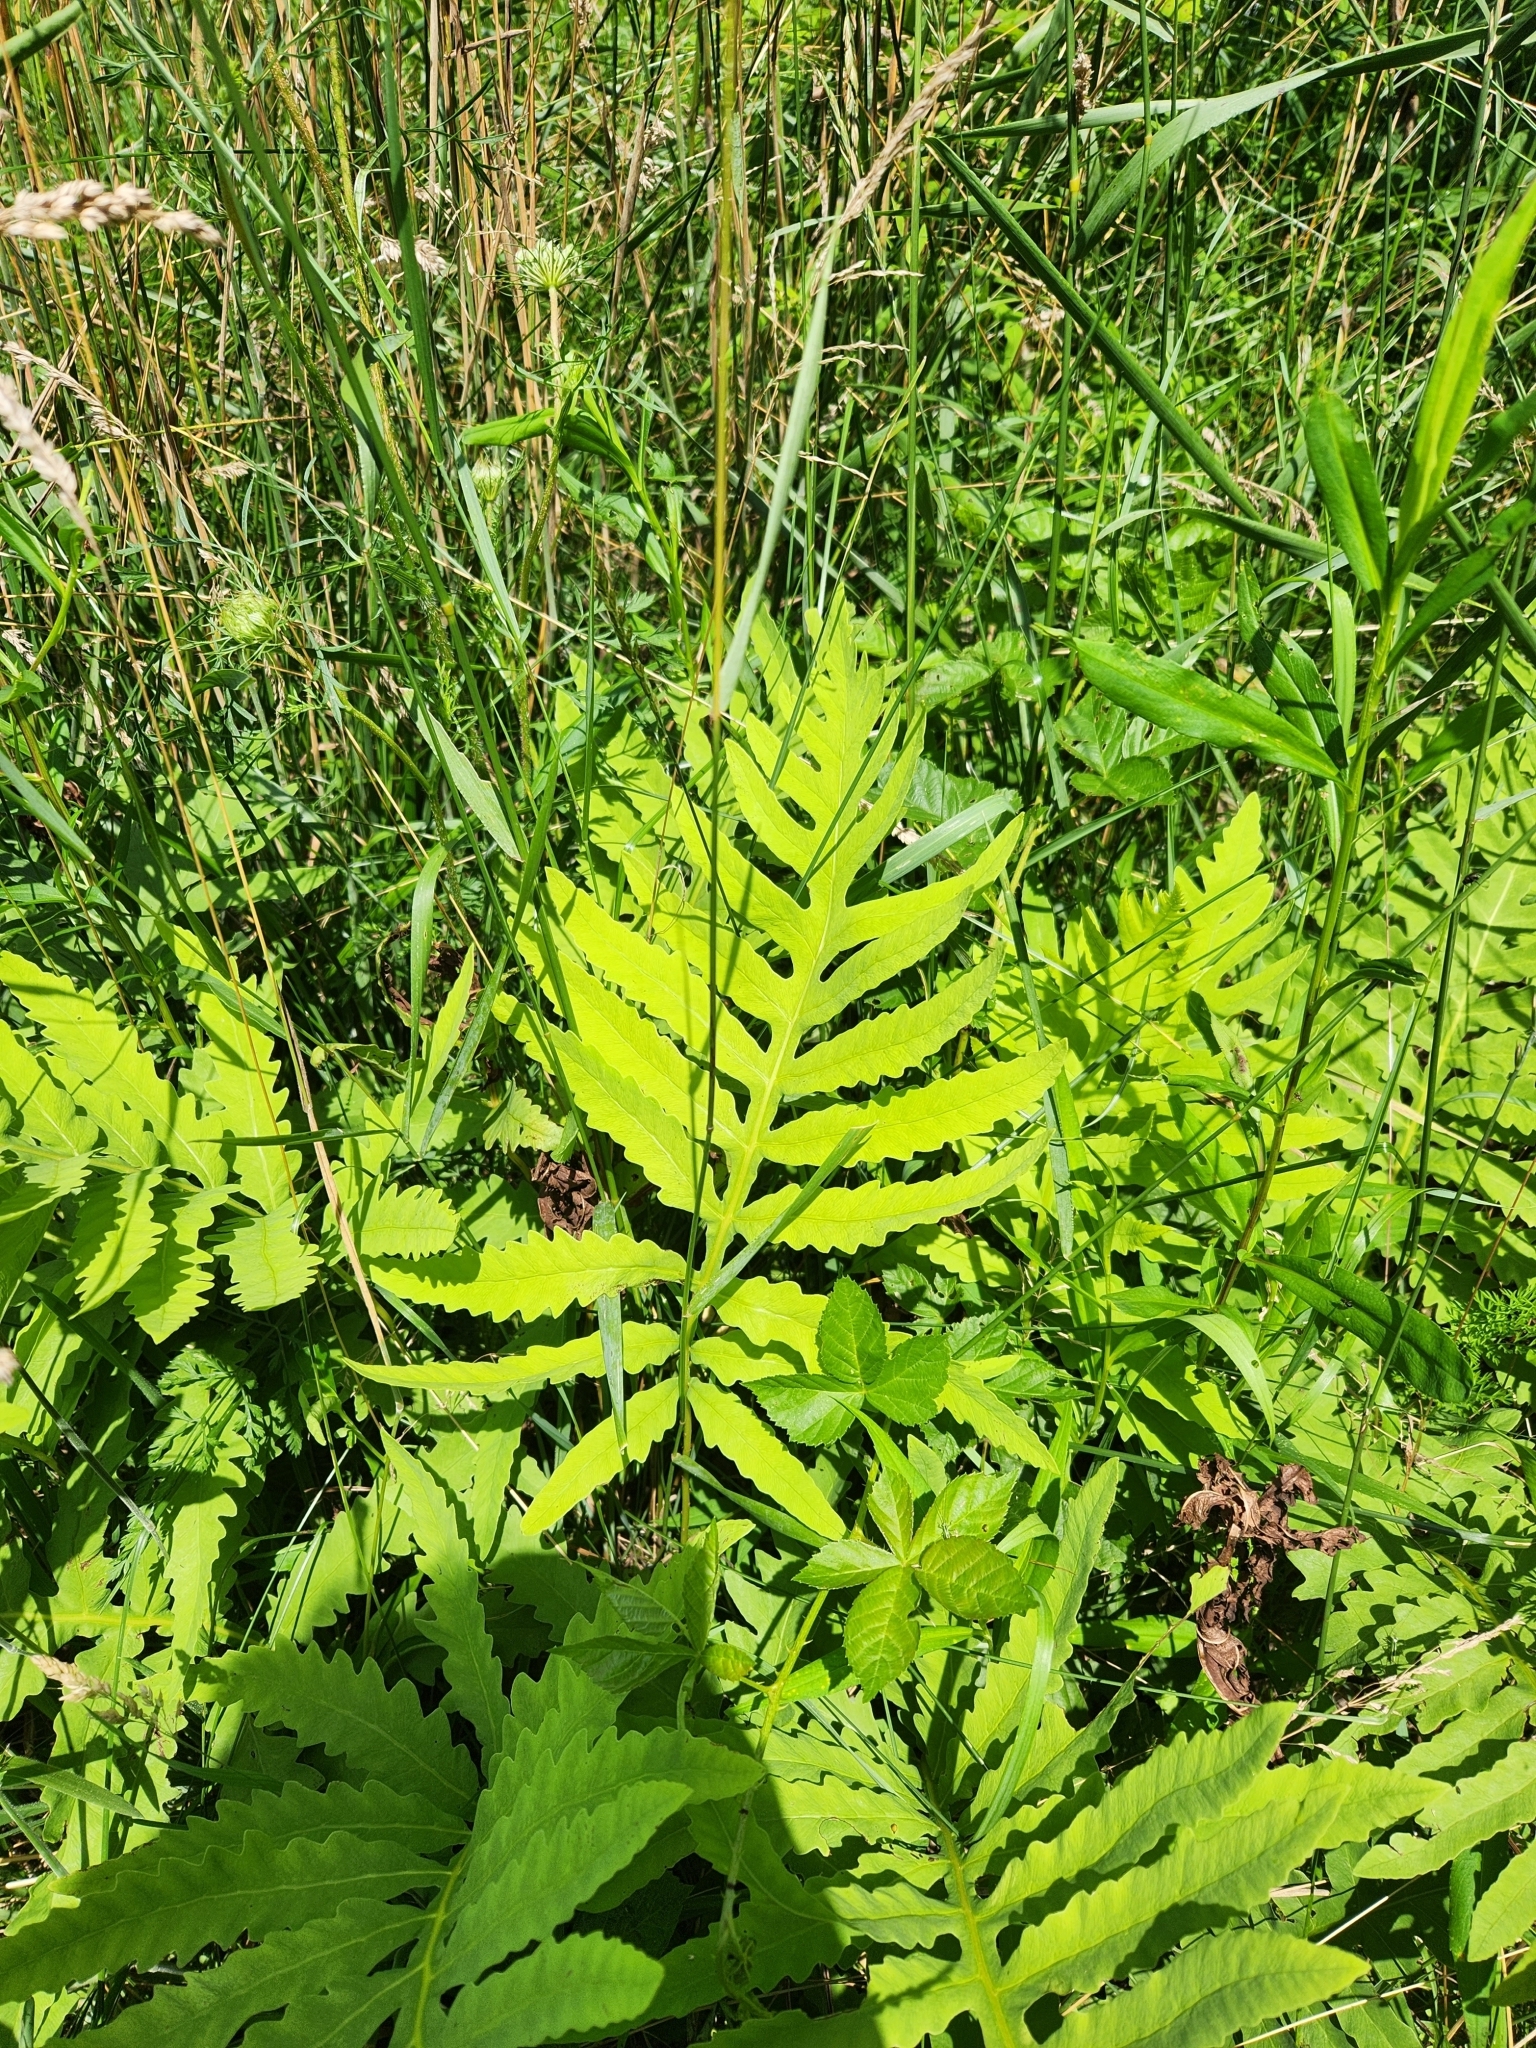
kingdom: Plantae
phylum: Tracheophyta
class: Polypodiopsida
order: Polypodiales
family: Onocleaceae
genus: Onoclea
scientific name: Onoclea sensibilis
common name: Sensitive fern
